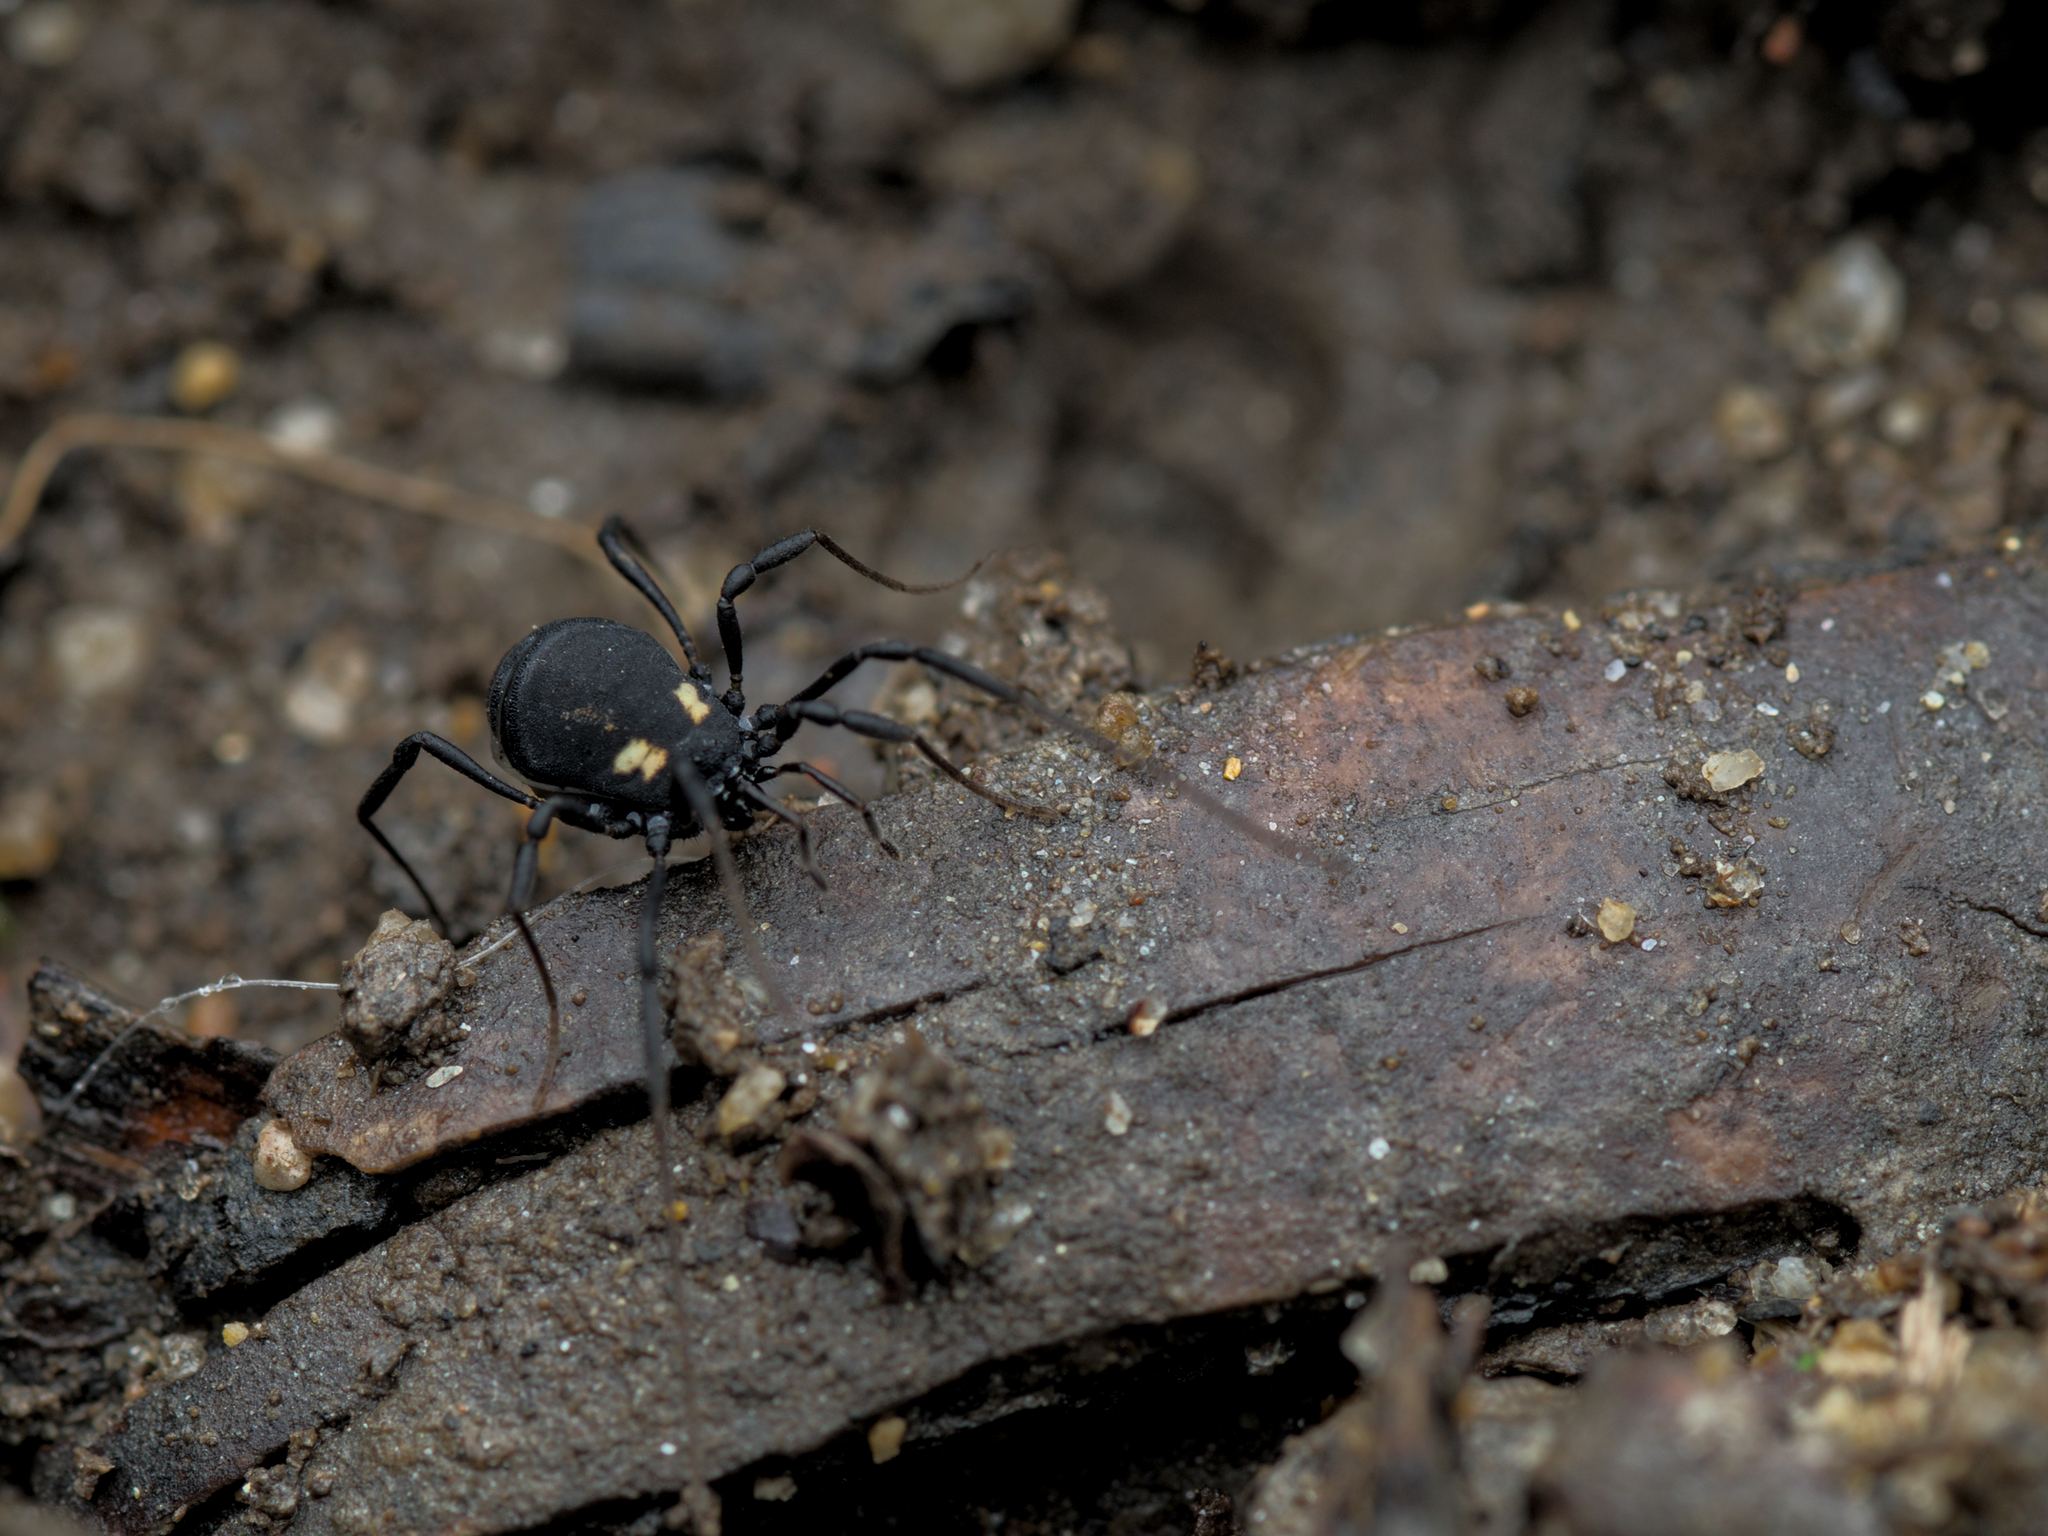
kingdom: Animalia
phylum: Arthropoda
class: Arachnida
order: Opiliones
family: Nemastomatidae
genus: Nemastoma
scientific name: Nemastoma bimaculatum
